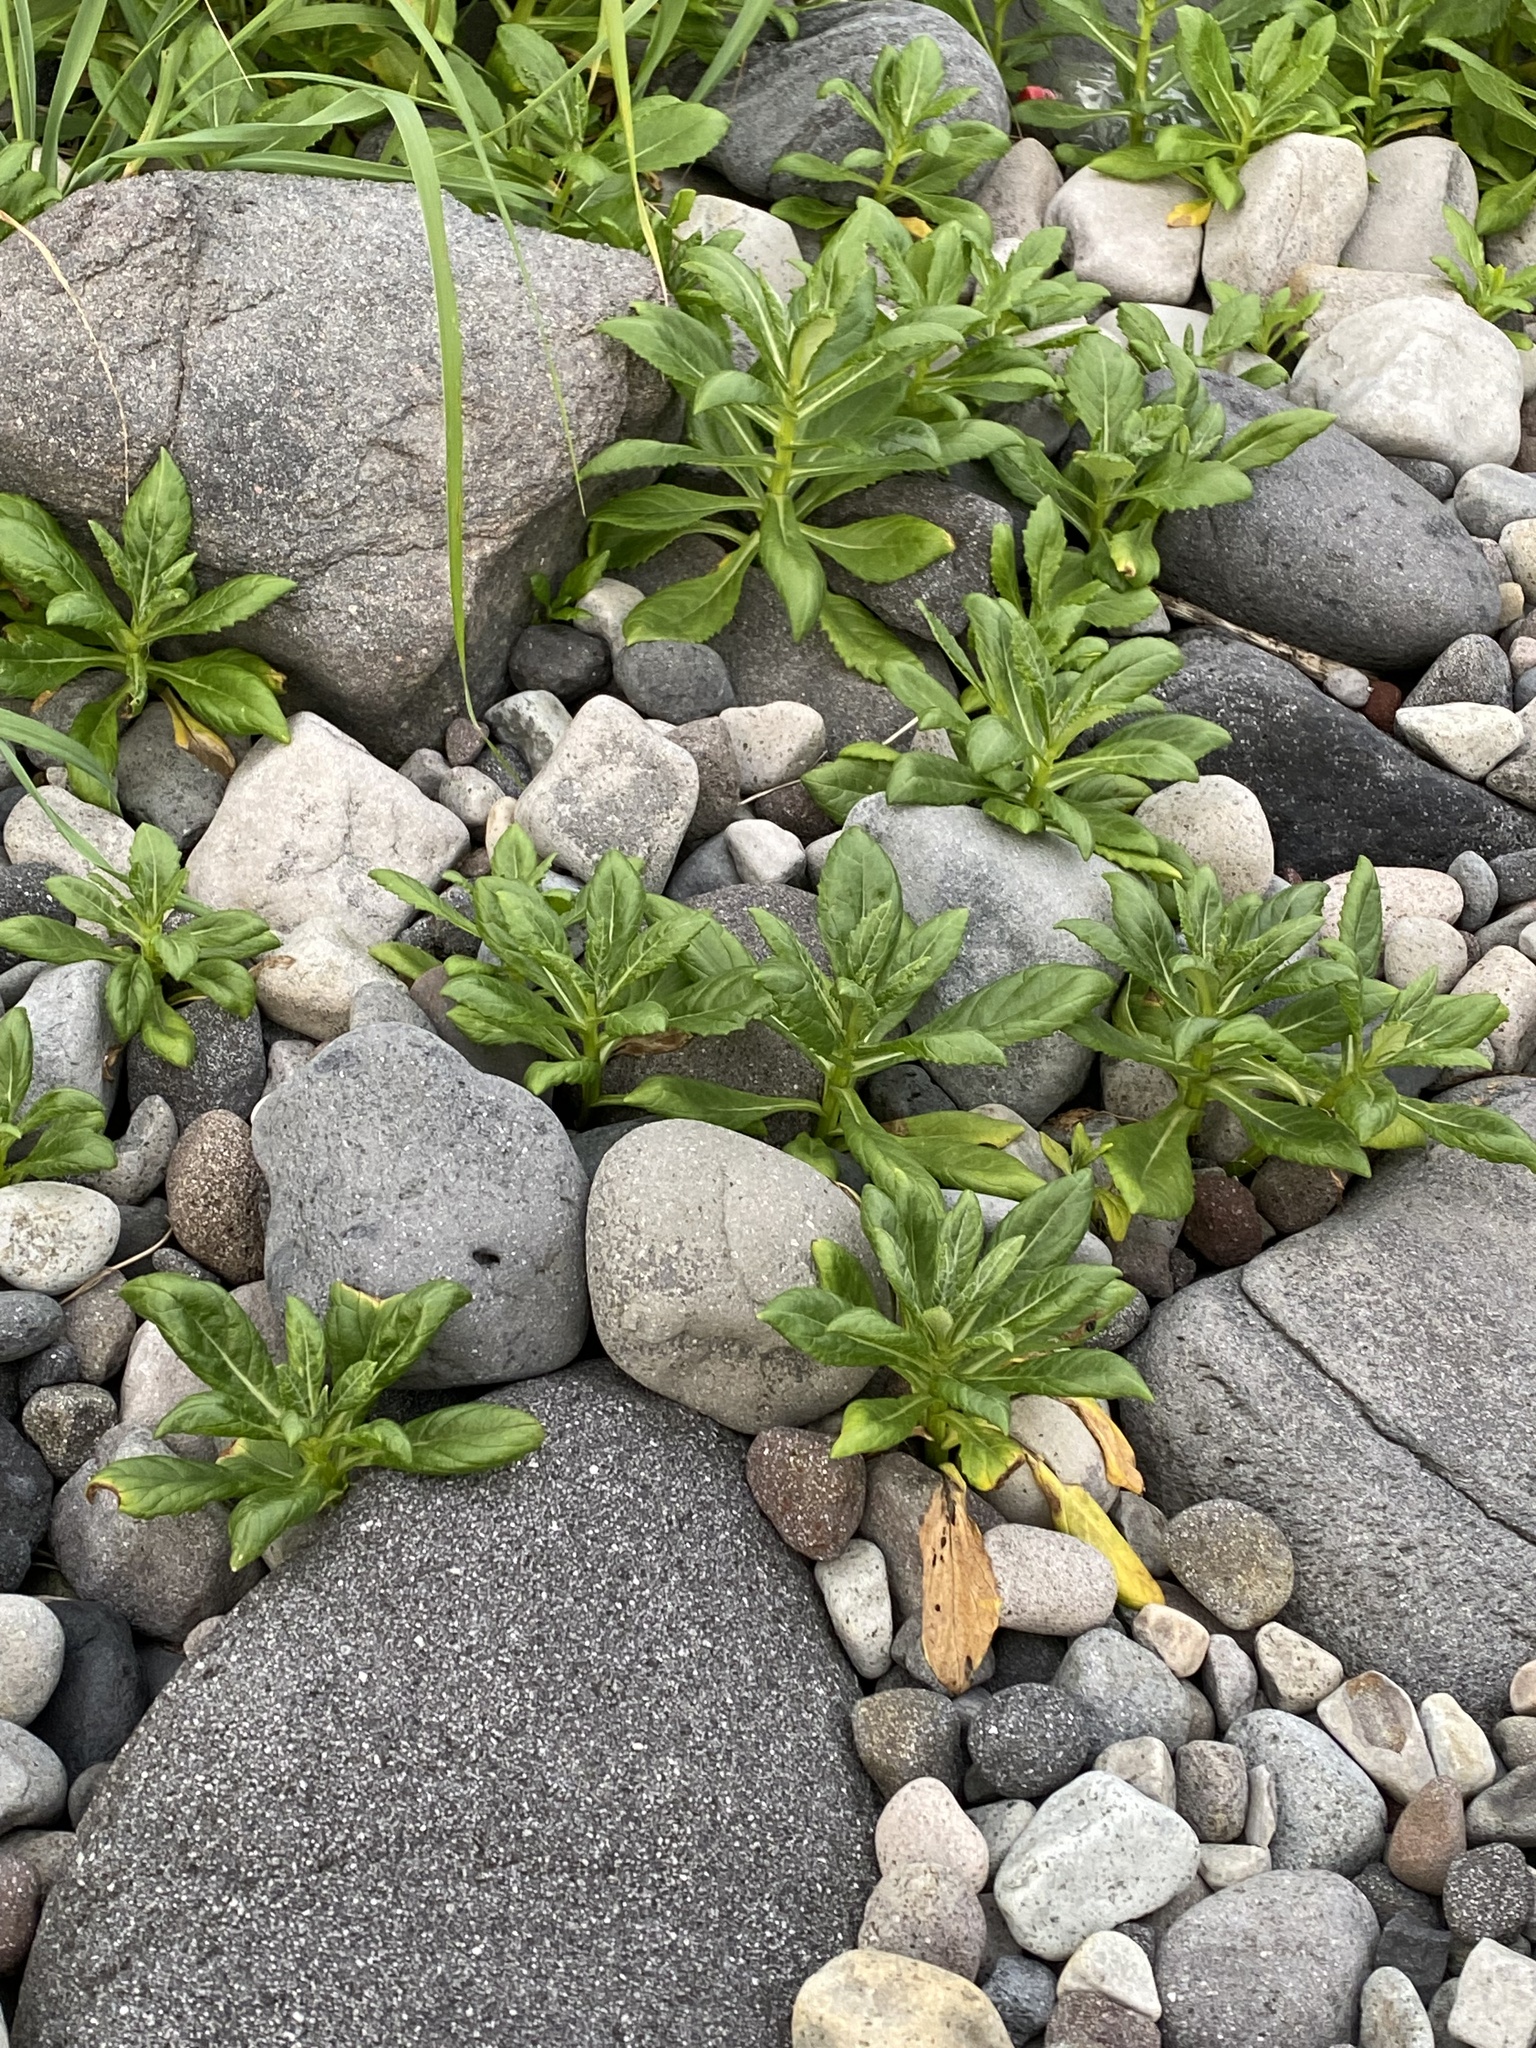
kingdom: Plantae
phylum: Tracheophyta
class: Magnoliopsida
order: Asterales
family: Asteraceae
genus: Jacobaea
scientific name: Jacobaea pseudoarnica
